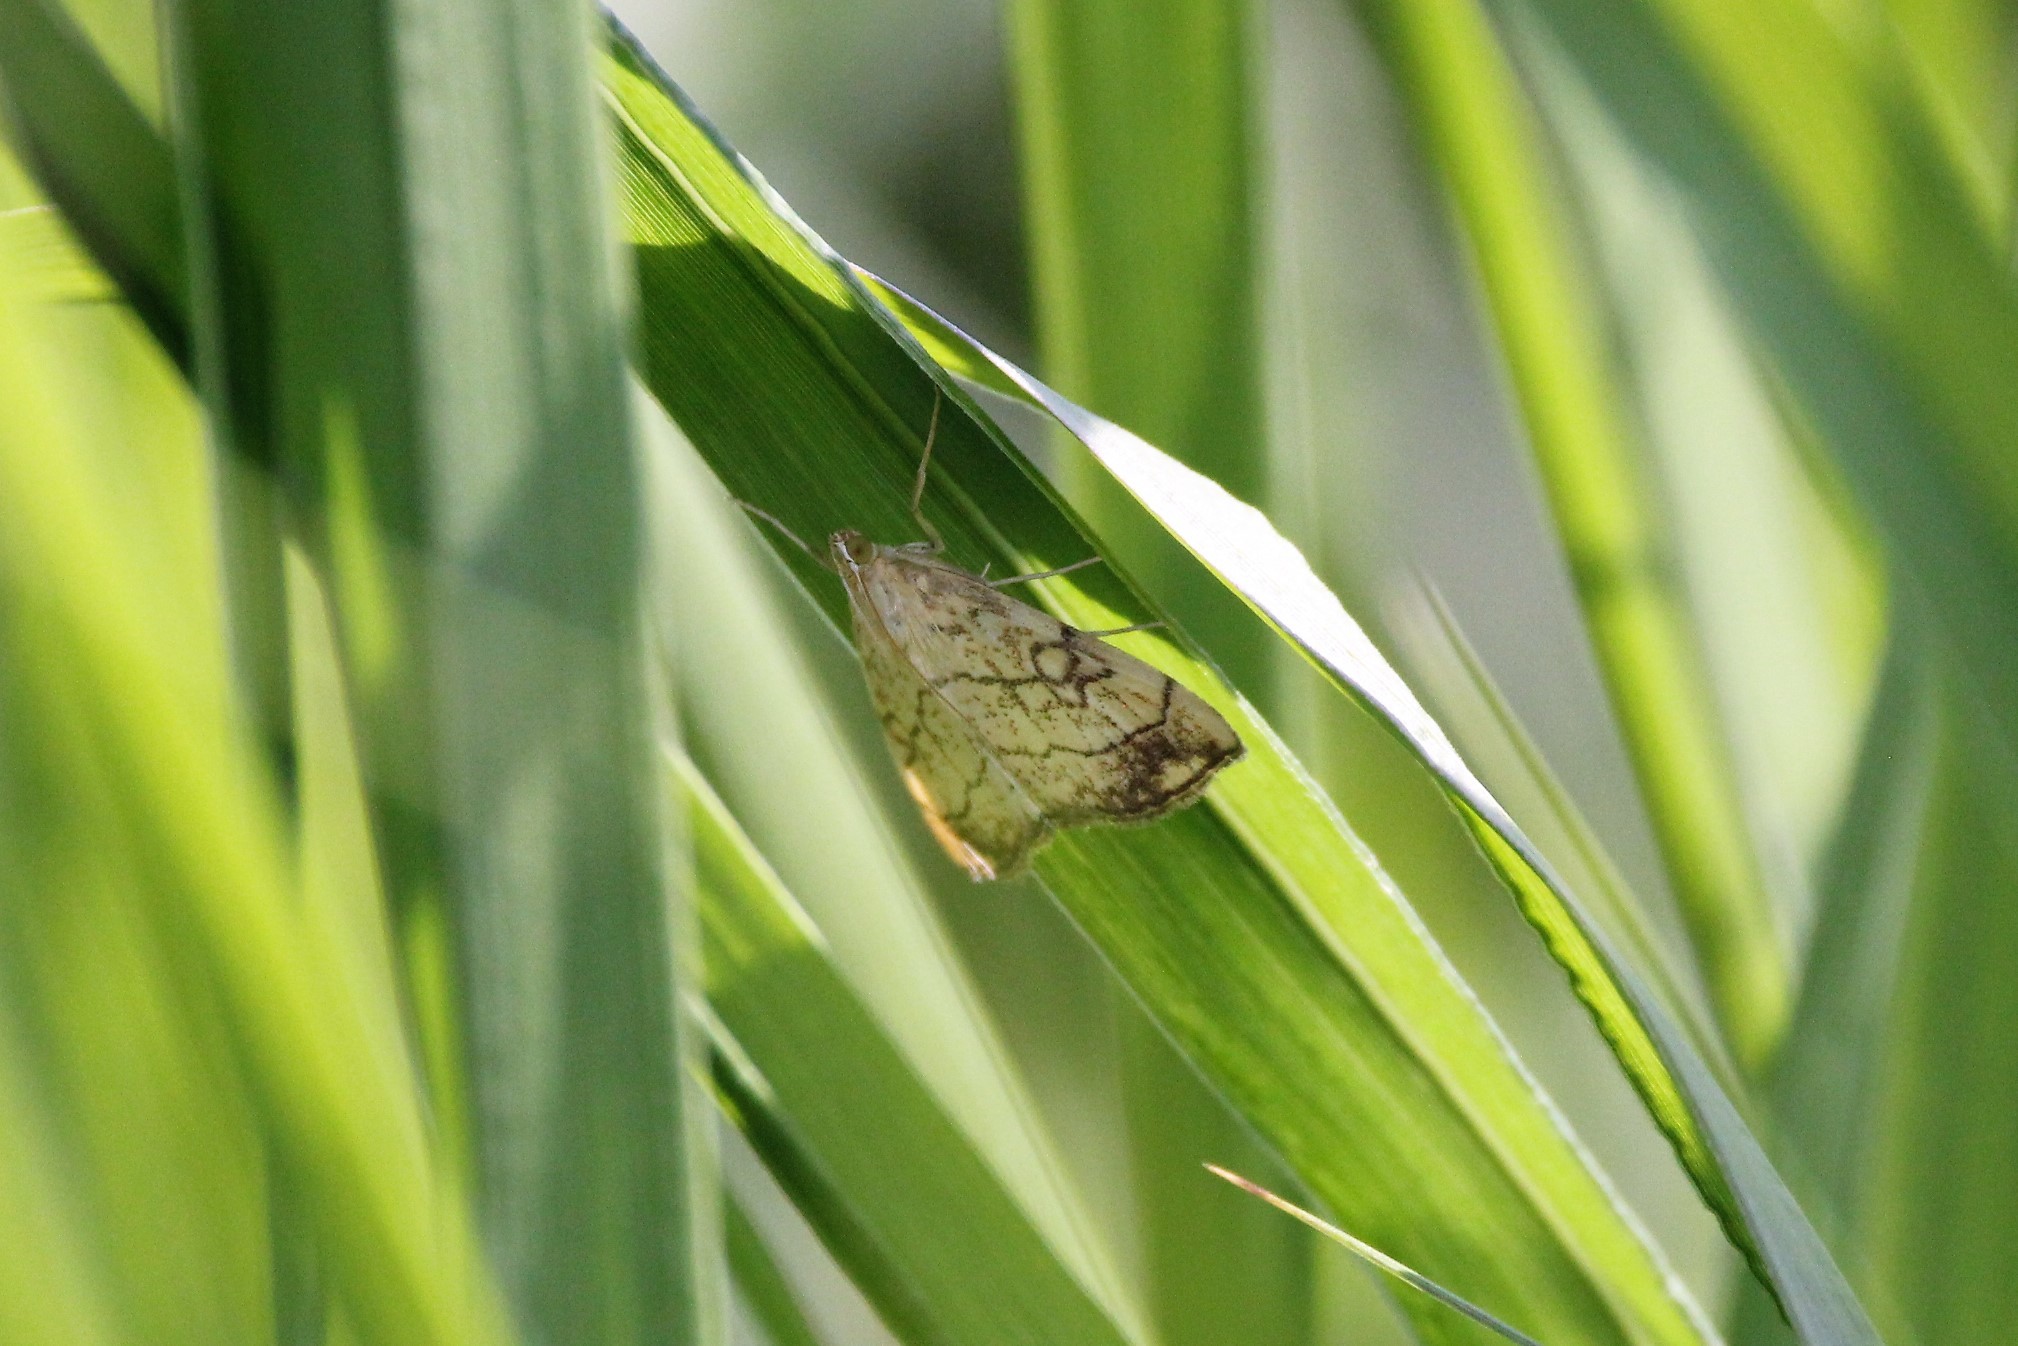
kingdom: Animalia
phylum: Arthropoda
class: Insecta
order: Lepidoptera
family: Crambidae
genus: Evergestis
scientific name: Evergestis pallidata
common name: Chequered pearl
